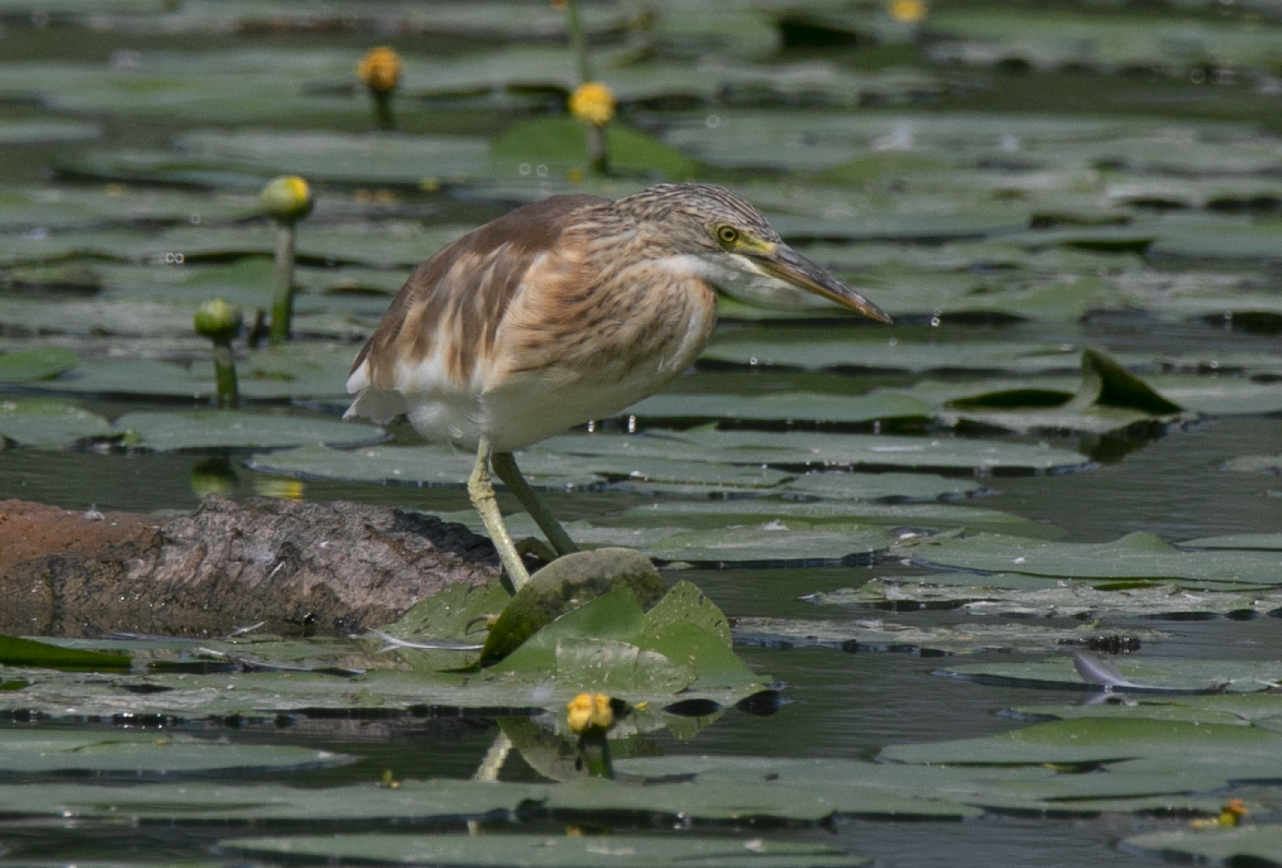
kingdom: Animalia
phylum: Chordata
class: Aves
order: Pelecaniformes
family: Ardeidae
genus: Ardeola
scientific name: Ardeola ralloides
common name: Squacco heron
